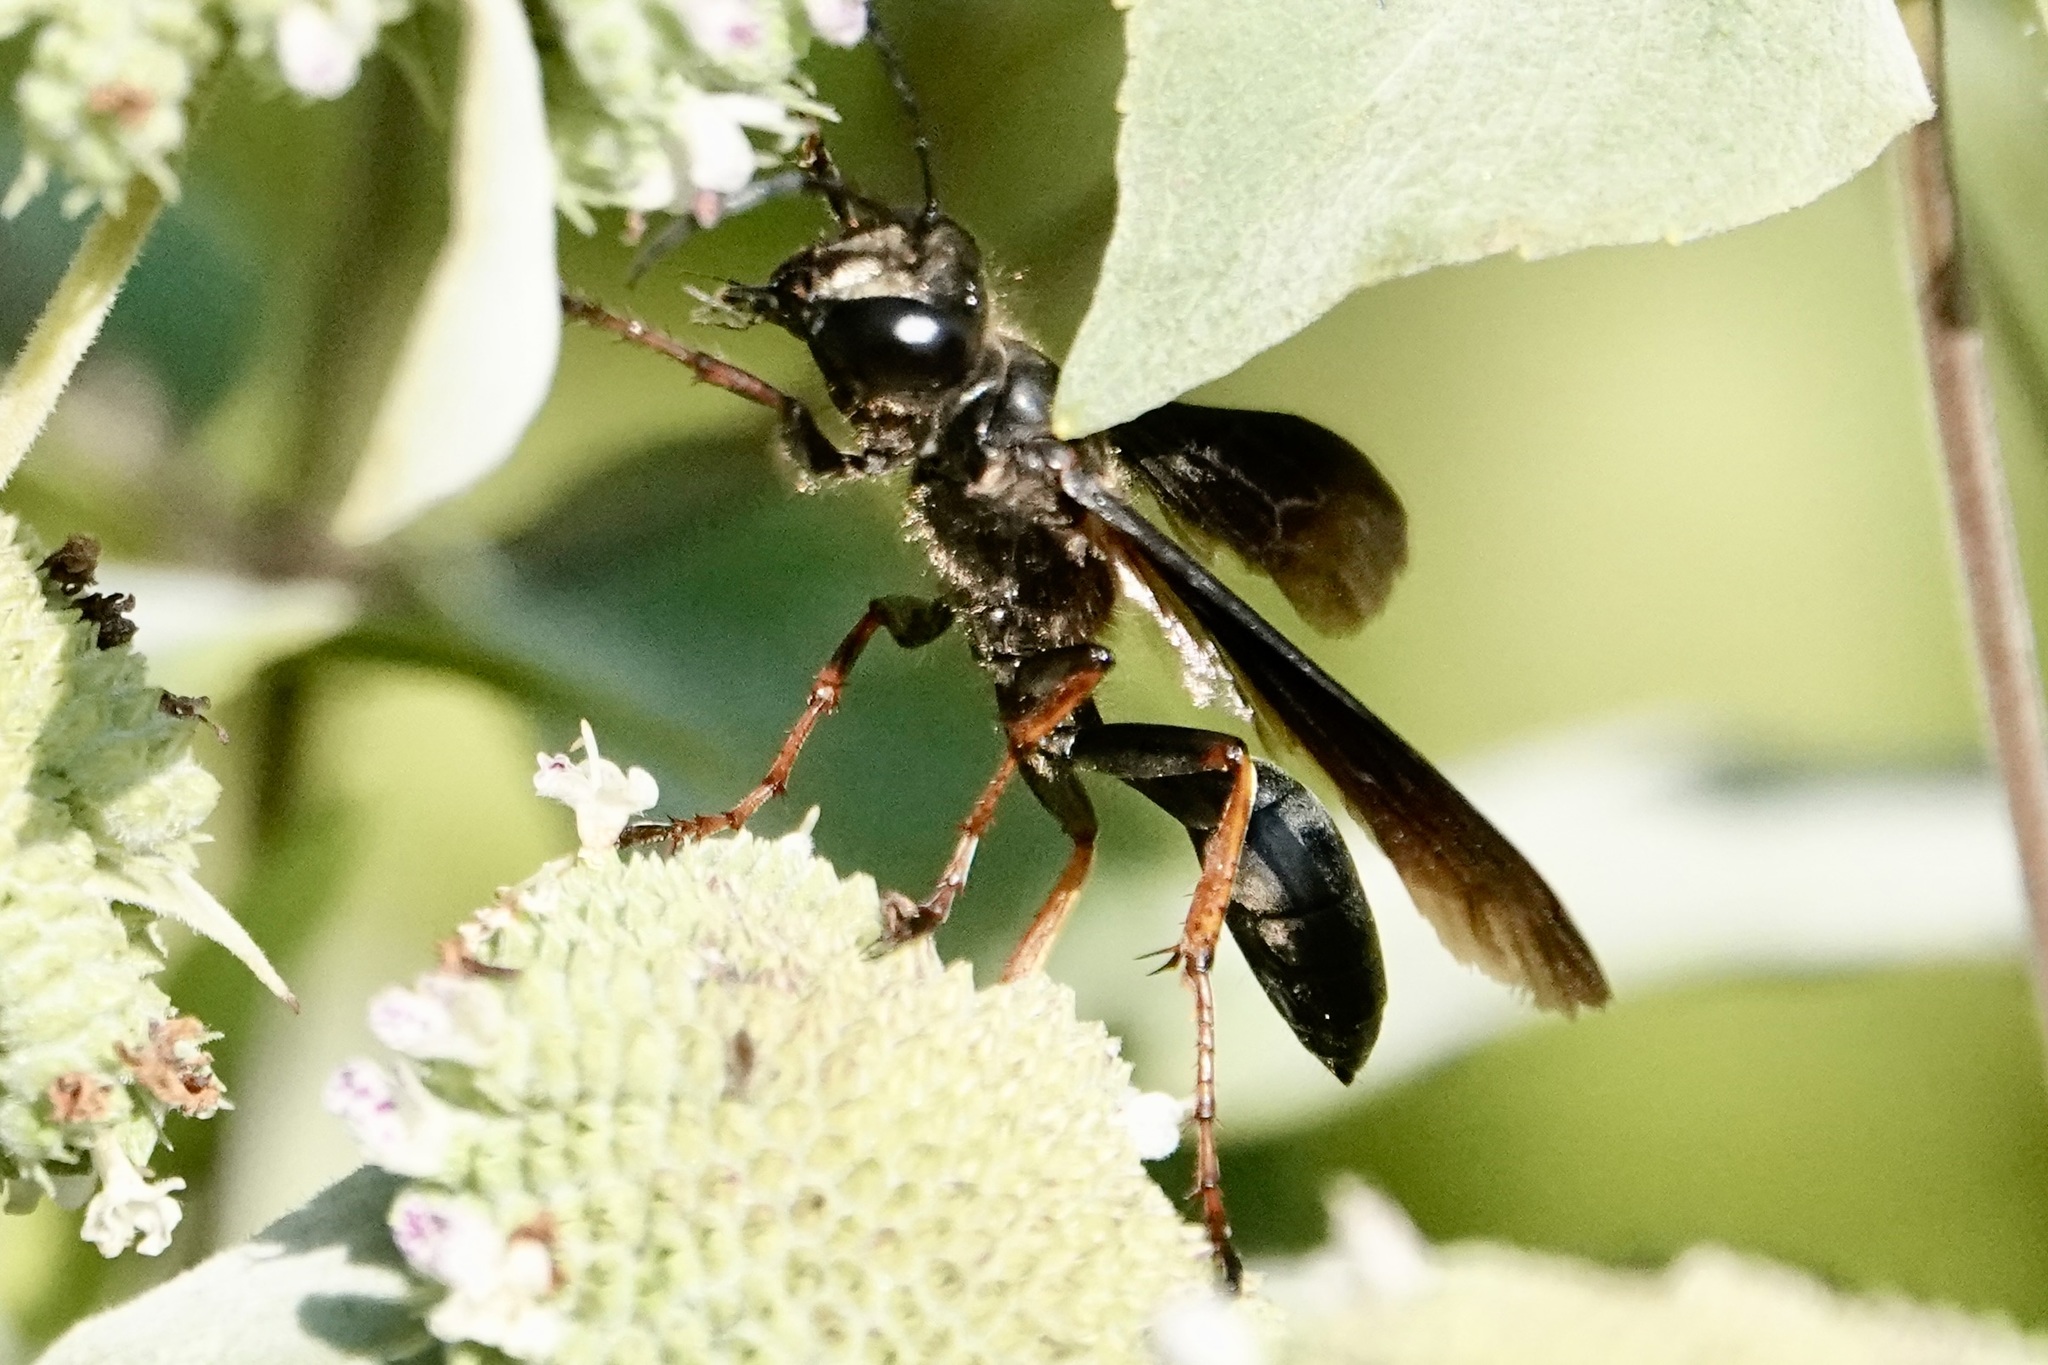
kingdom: Animalia
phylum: Arthropoda
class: Insecta
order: Hymenoptera
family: Sphecidae
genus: Isodontia
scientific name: Isodontia auripes
